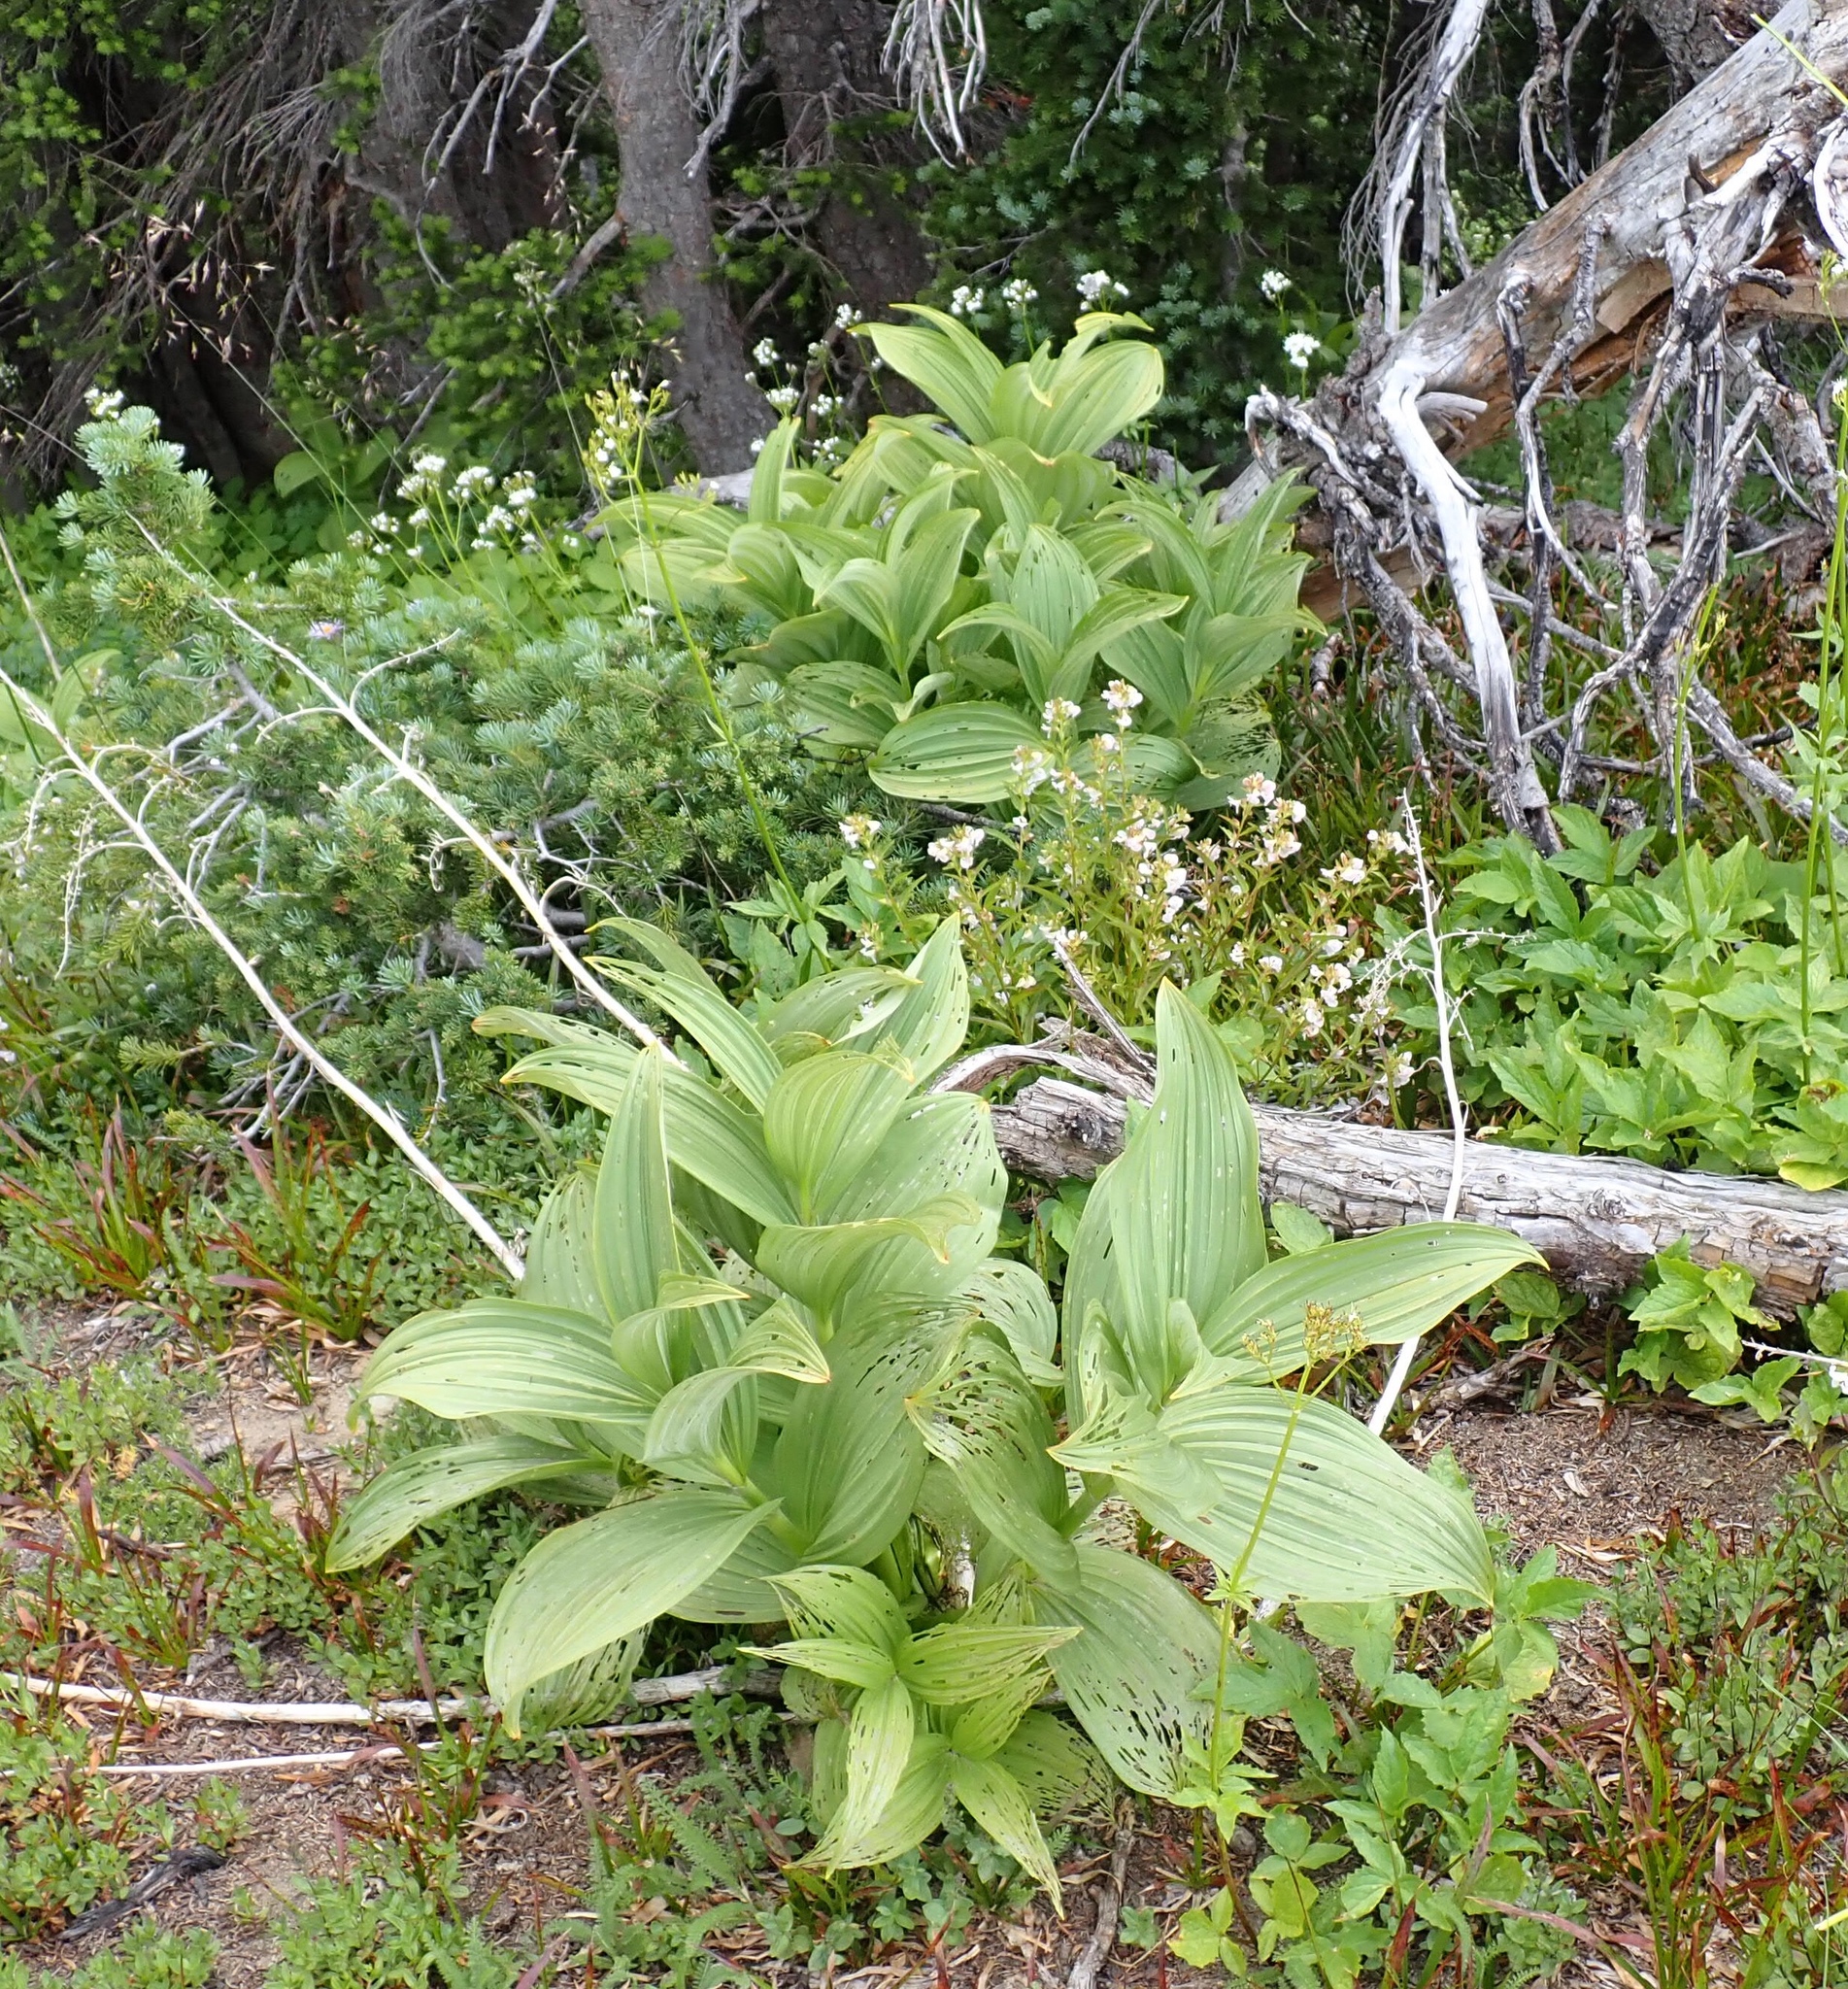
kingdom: Plantae
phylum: Tracheophyta
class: Liliopsida
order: Liliales
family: Melanthiaceae
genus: Veratrum
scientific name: Veratrum viride
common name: American false hellebore
